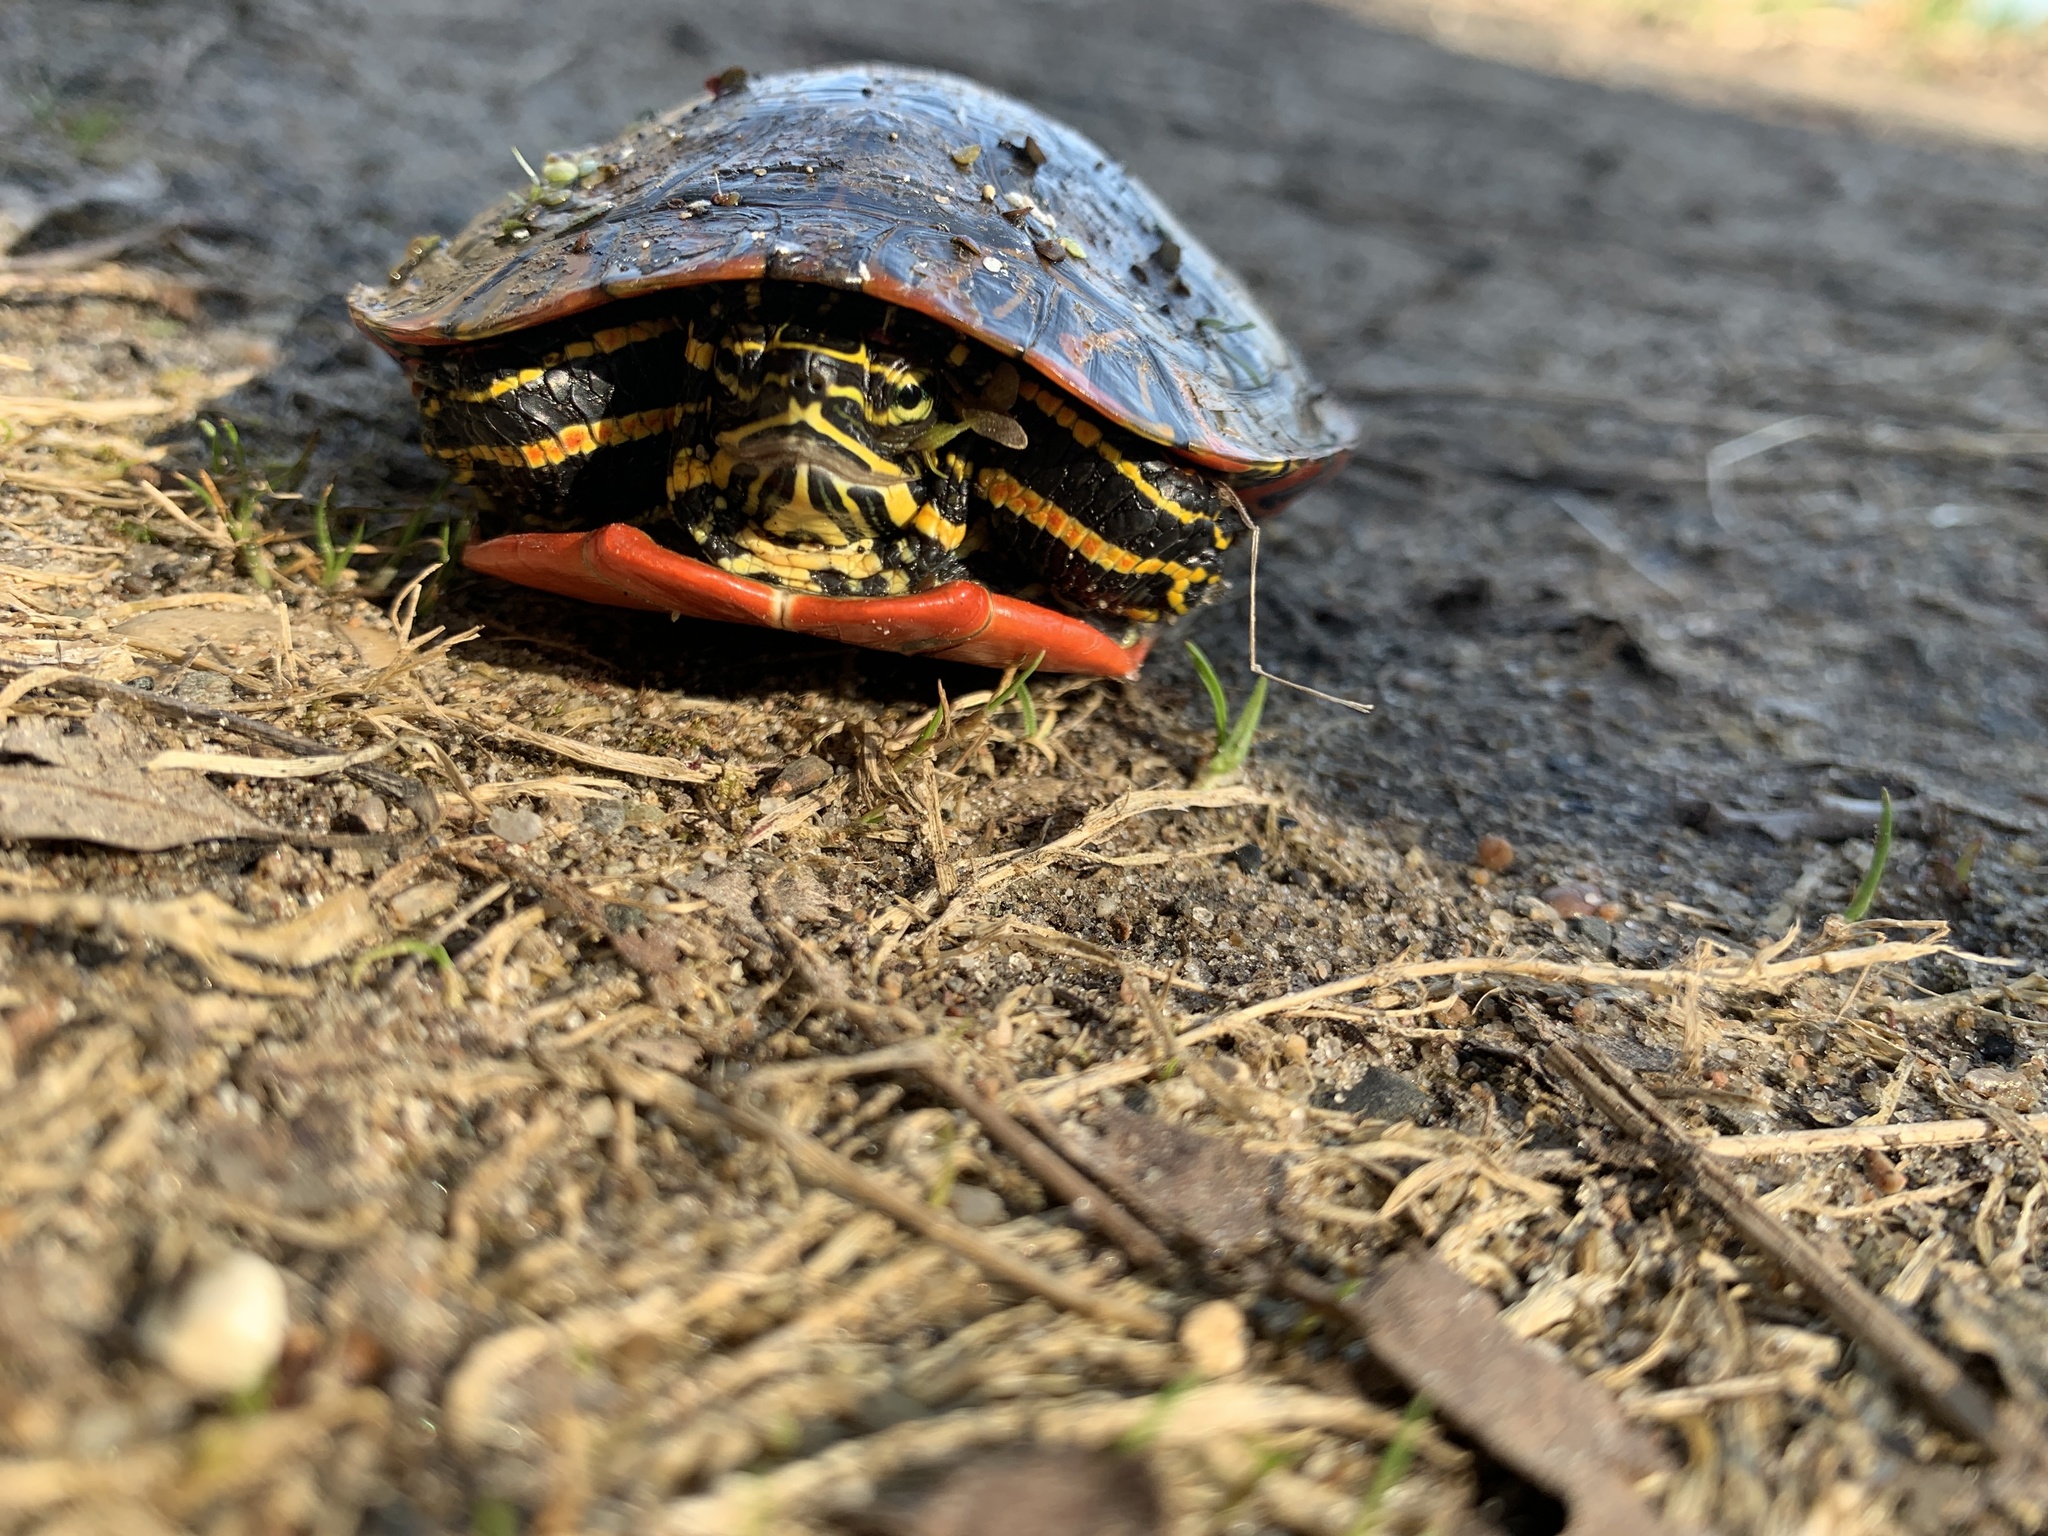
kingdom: Animalia
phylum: Chordata
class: Testudines
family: Emydidae
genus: Chrysemys
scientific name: Chrysemys picta
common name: Painted turtle
